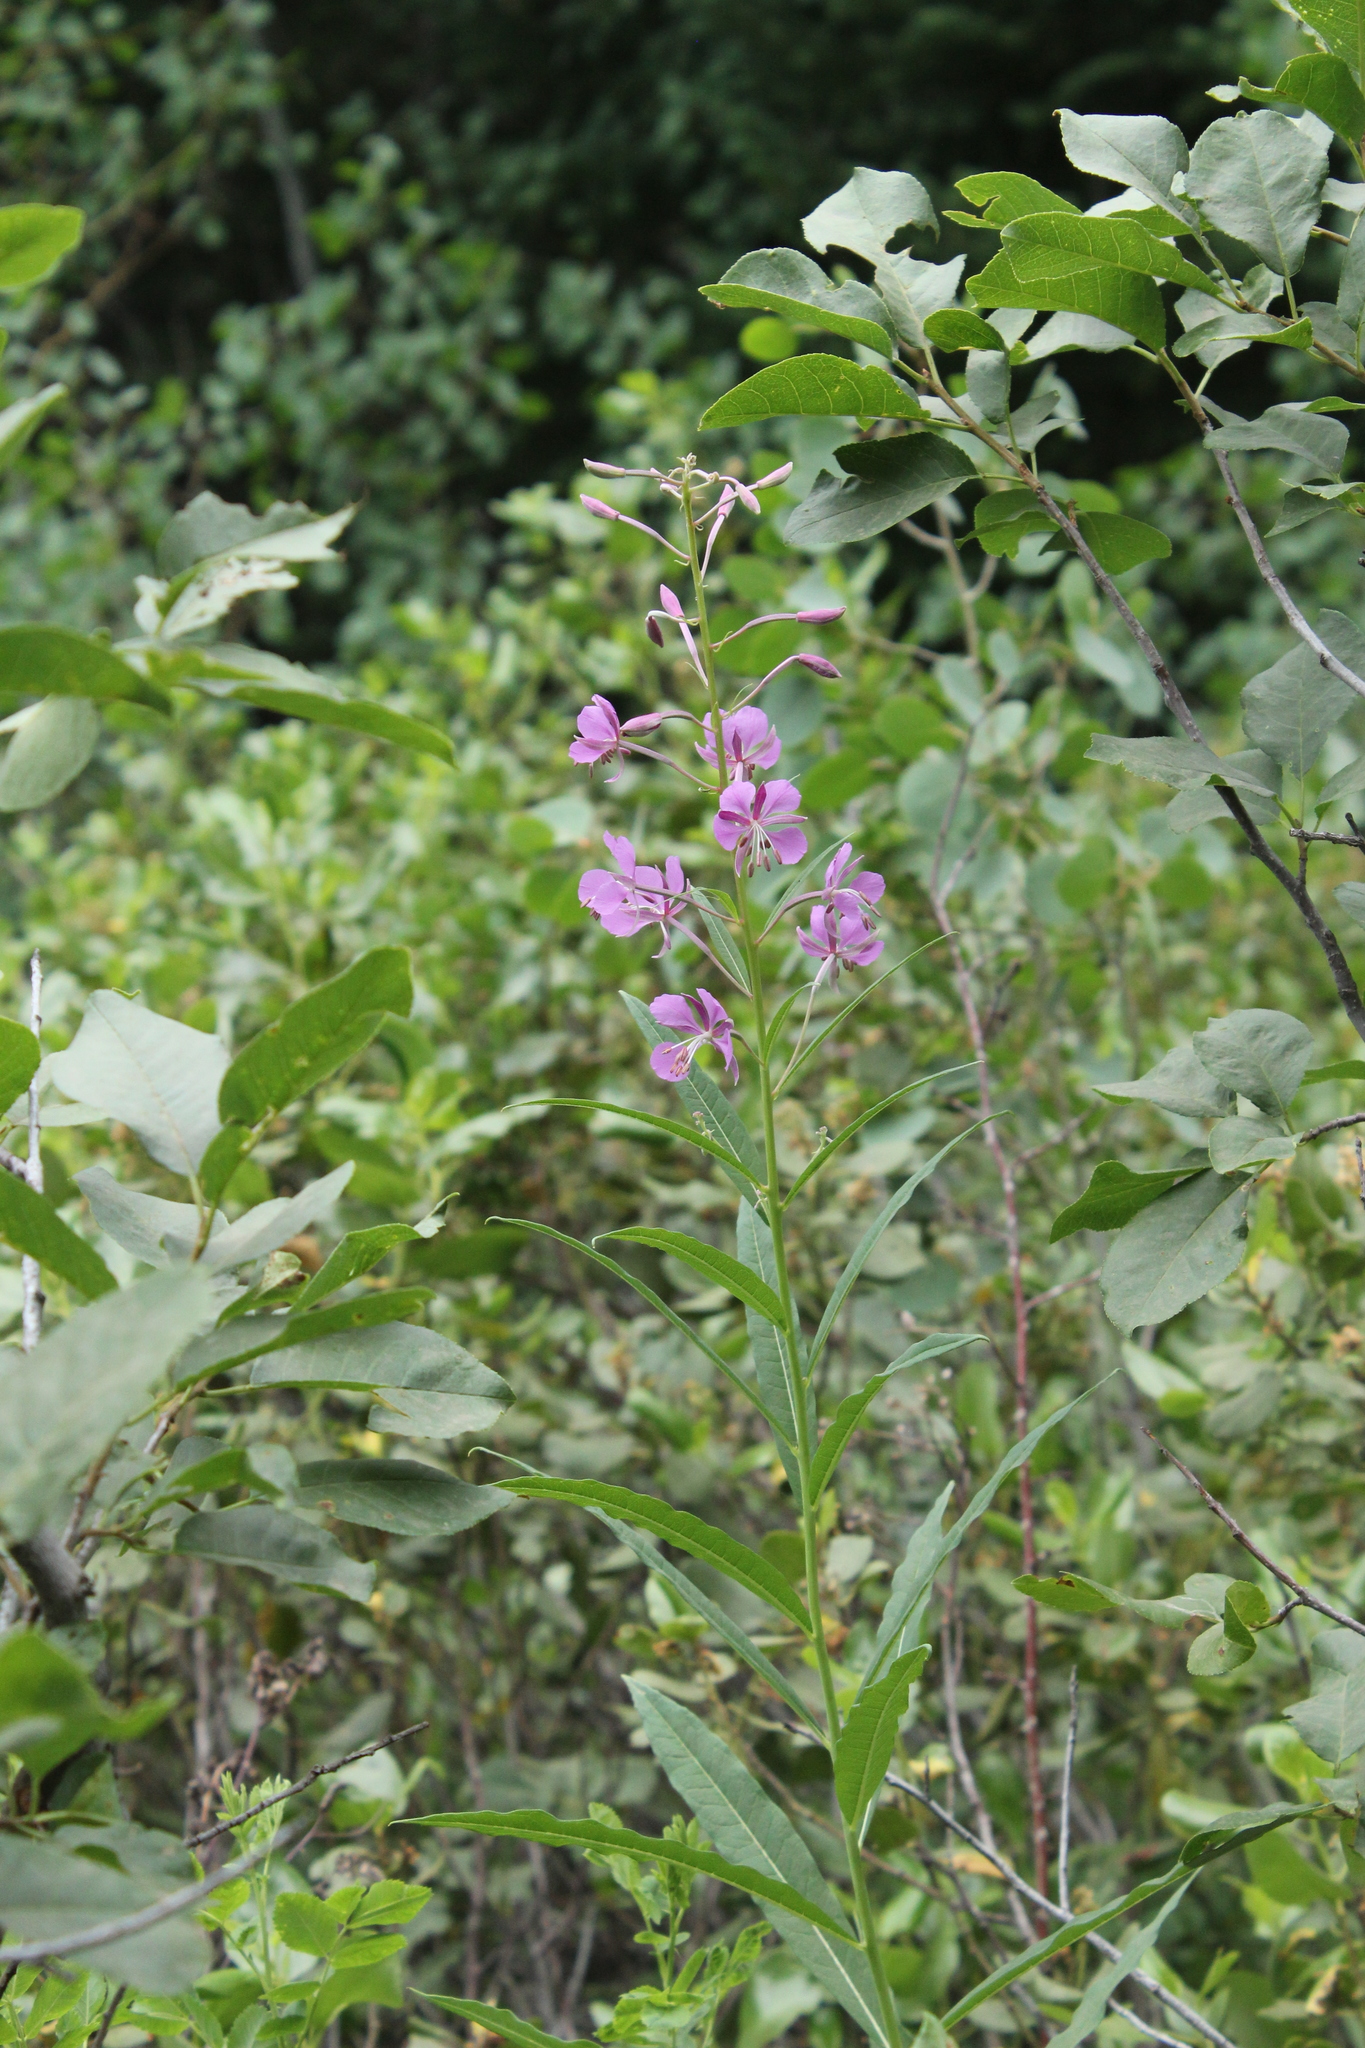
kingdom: Plantae
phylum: Tracheophyta
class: Magnoliopsida
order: Myrtales
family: Onagraceae
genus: Chamaenerion
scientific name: Chamaenerion angustifolium
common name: Fireweed
